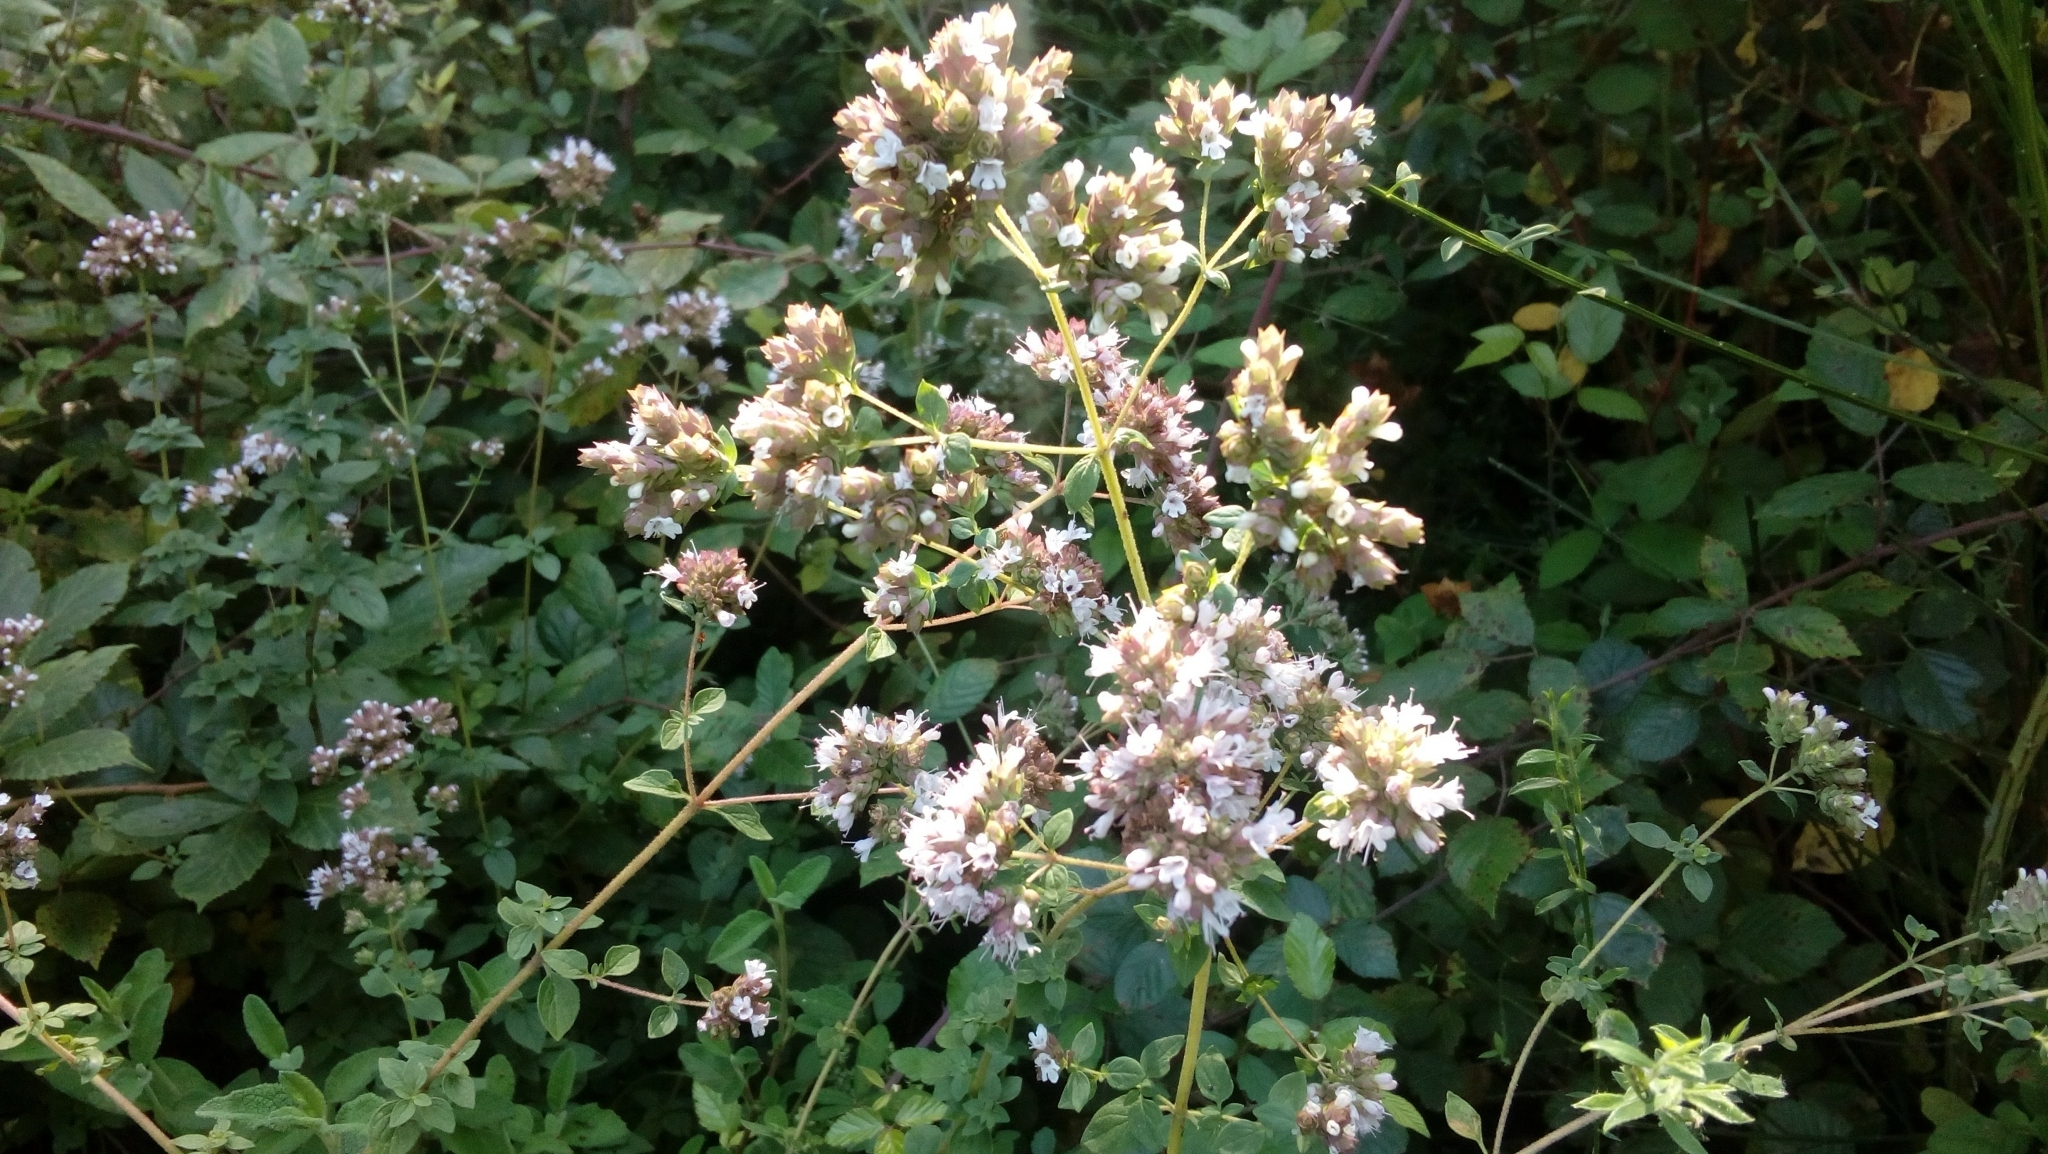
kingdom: Plantae
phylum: Tracheophyta
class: Magnoliopsida
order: Lamiales
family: Lamiaceae
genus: Origanum
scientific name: Origanum vulgare
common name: Wild marjoram
